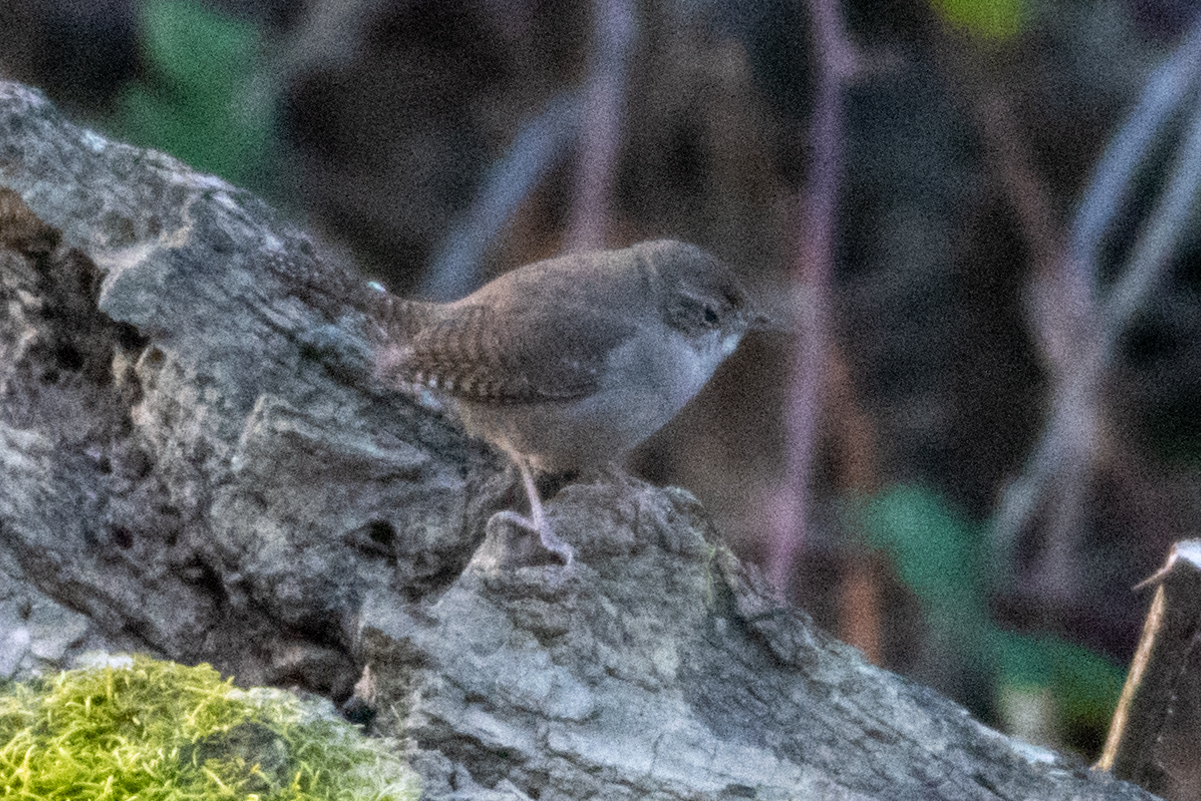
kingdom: Animalia
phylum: Chordata
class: Aves
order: Passeriformes
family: Troglodytidae
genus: Troglodytes
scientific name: Troglodytes aedon
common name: House wren
